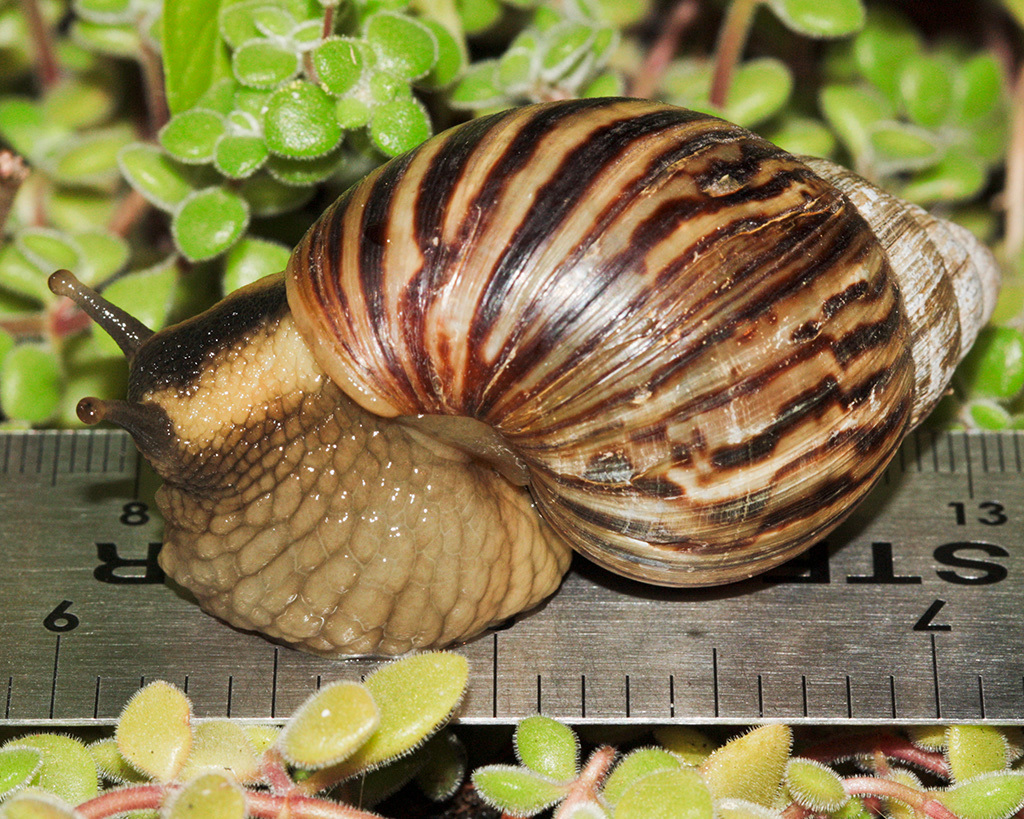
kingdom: Animalia
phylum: Mollusca
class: Gastropoda
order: Stylommatophora
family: Achatinidae
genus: Cochlitoma
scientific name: Cochlitoma zebra
